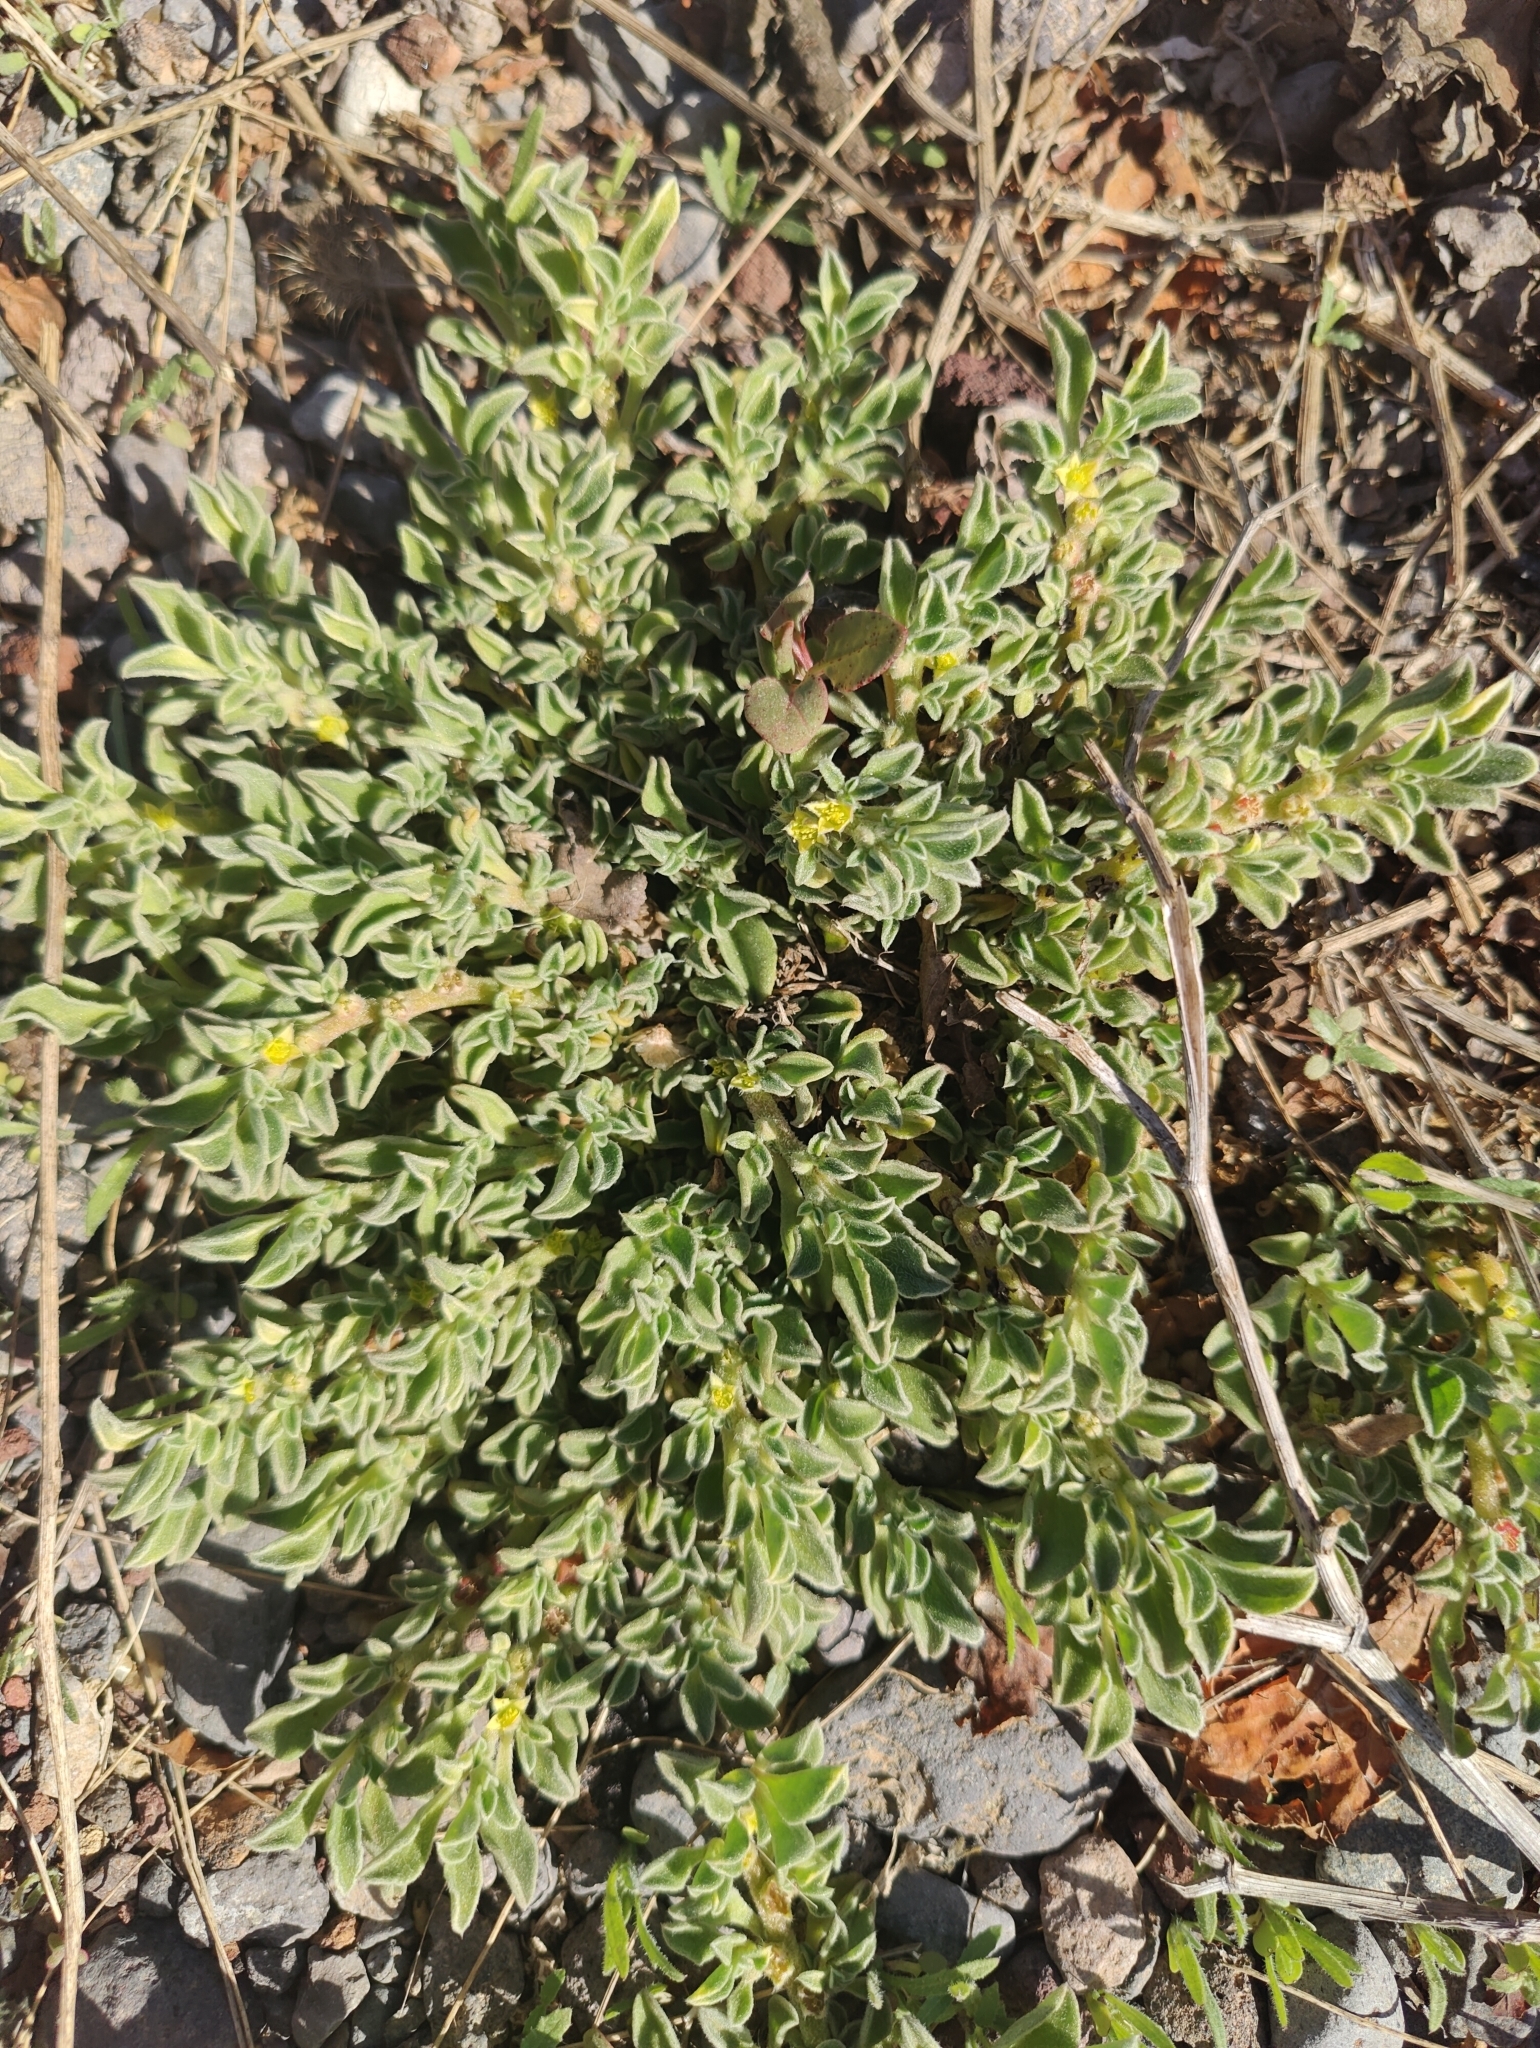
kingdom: Plantae
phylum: Tracheophyta
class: Magnoliopsida
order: Caryophyllales
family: Aizoaceae
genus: Aizoon
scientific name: Aizoon canariense
